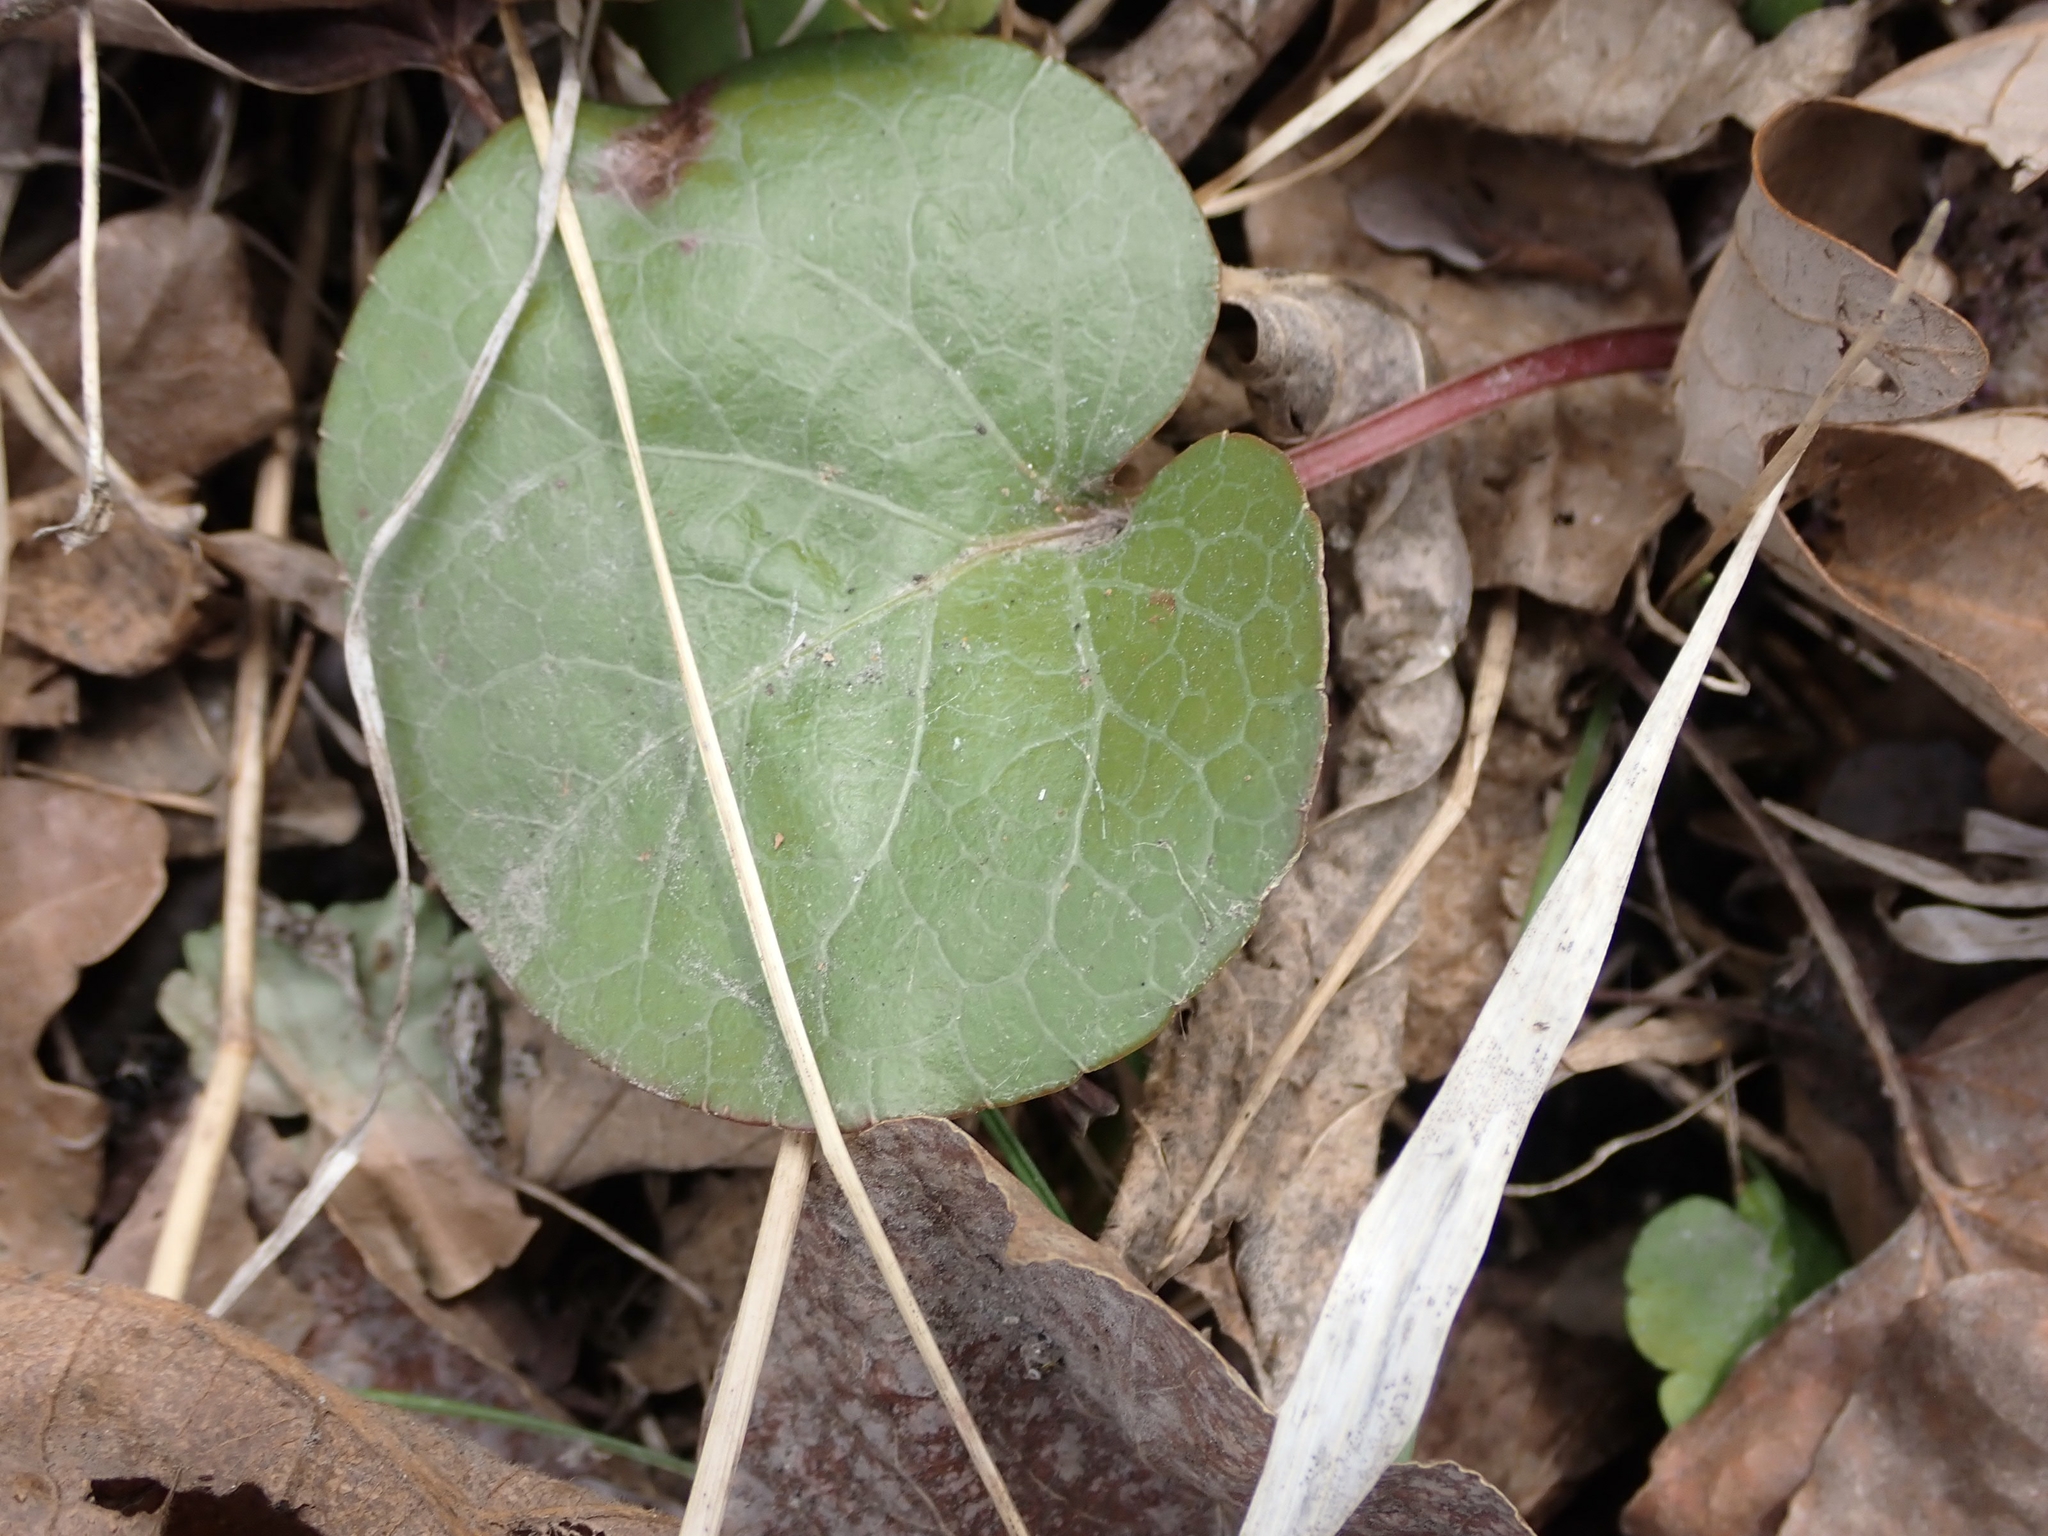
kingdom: Plantae
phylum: Tracheophyta
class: Magnoliopsida
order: Ericales
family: Ericaceae
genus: Pyrola
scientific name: Pyrola asarifolia
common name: Bog wintergreen
